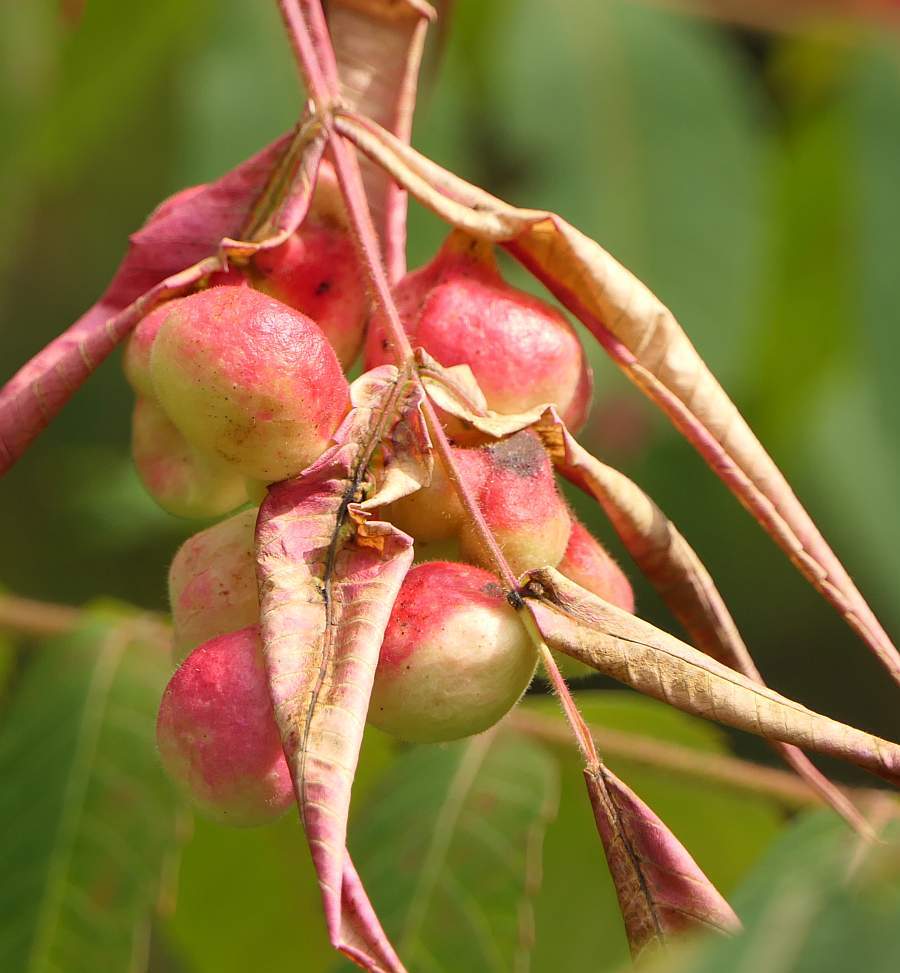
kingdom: Animalia
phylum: Arthropoda
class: Insecta
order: Hemiptera
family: Aphididae
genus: Melaphis
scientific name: Melaphis rhois
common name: Sumac gall aphid
